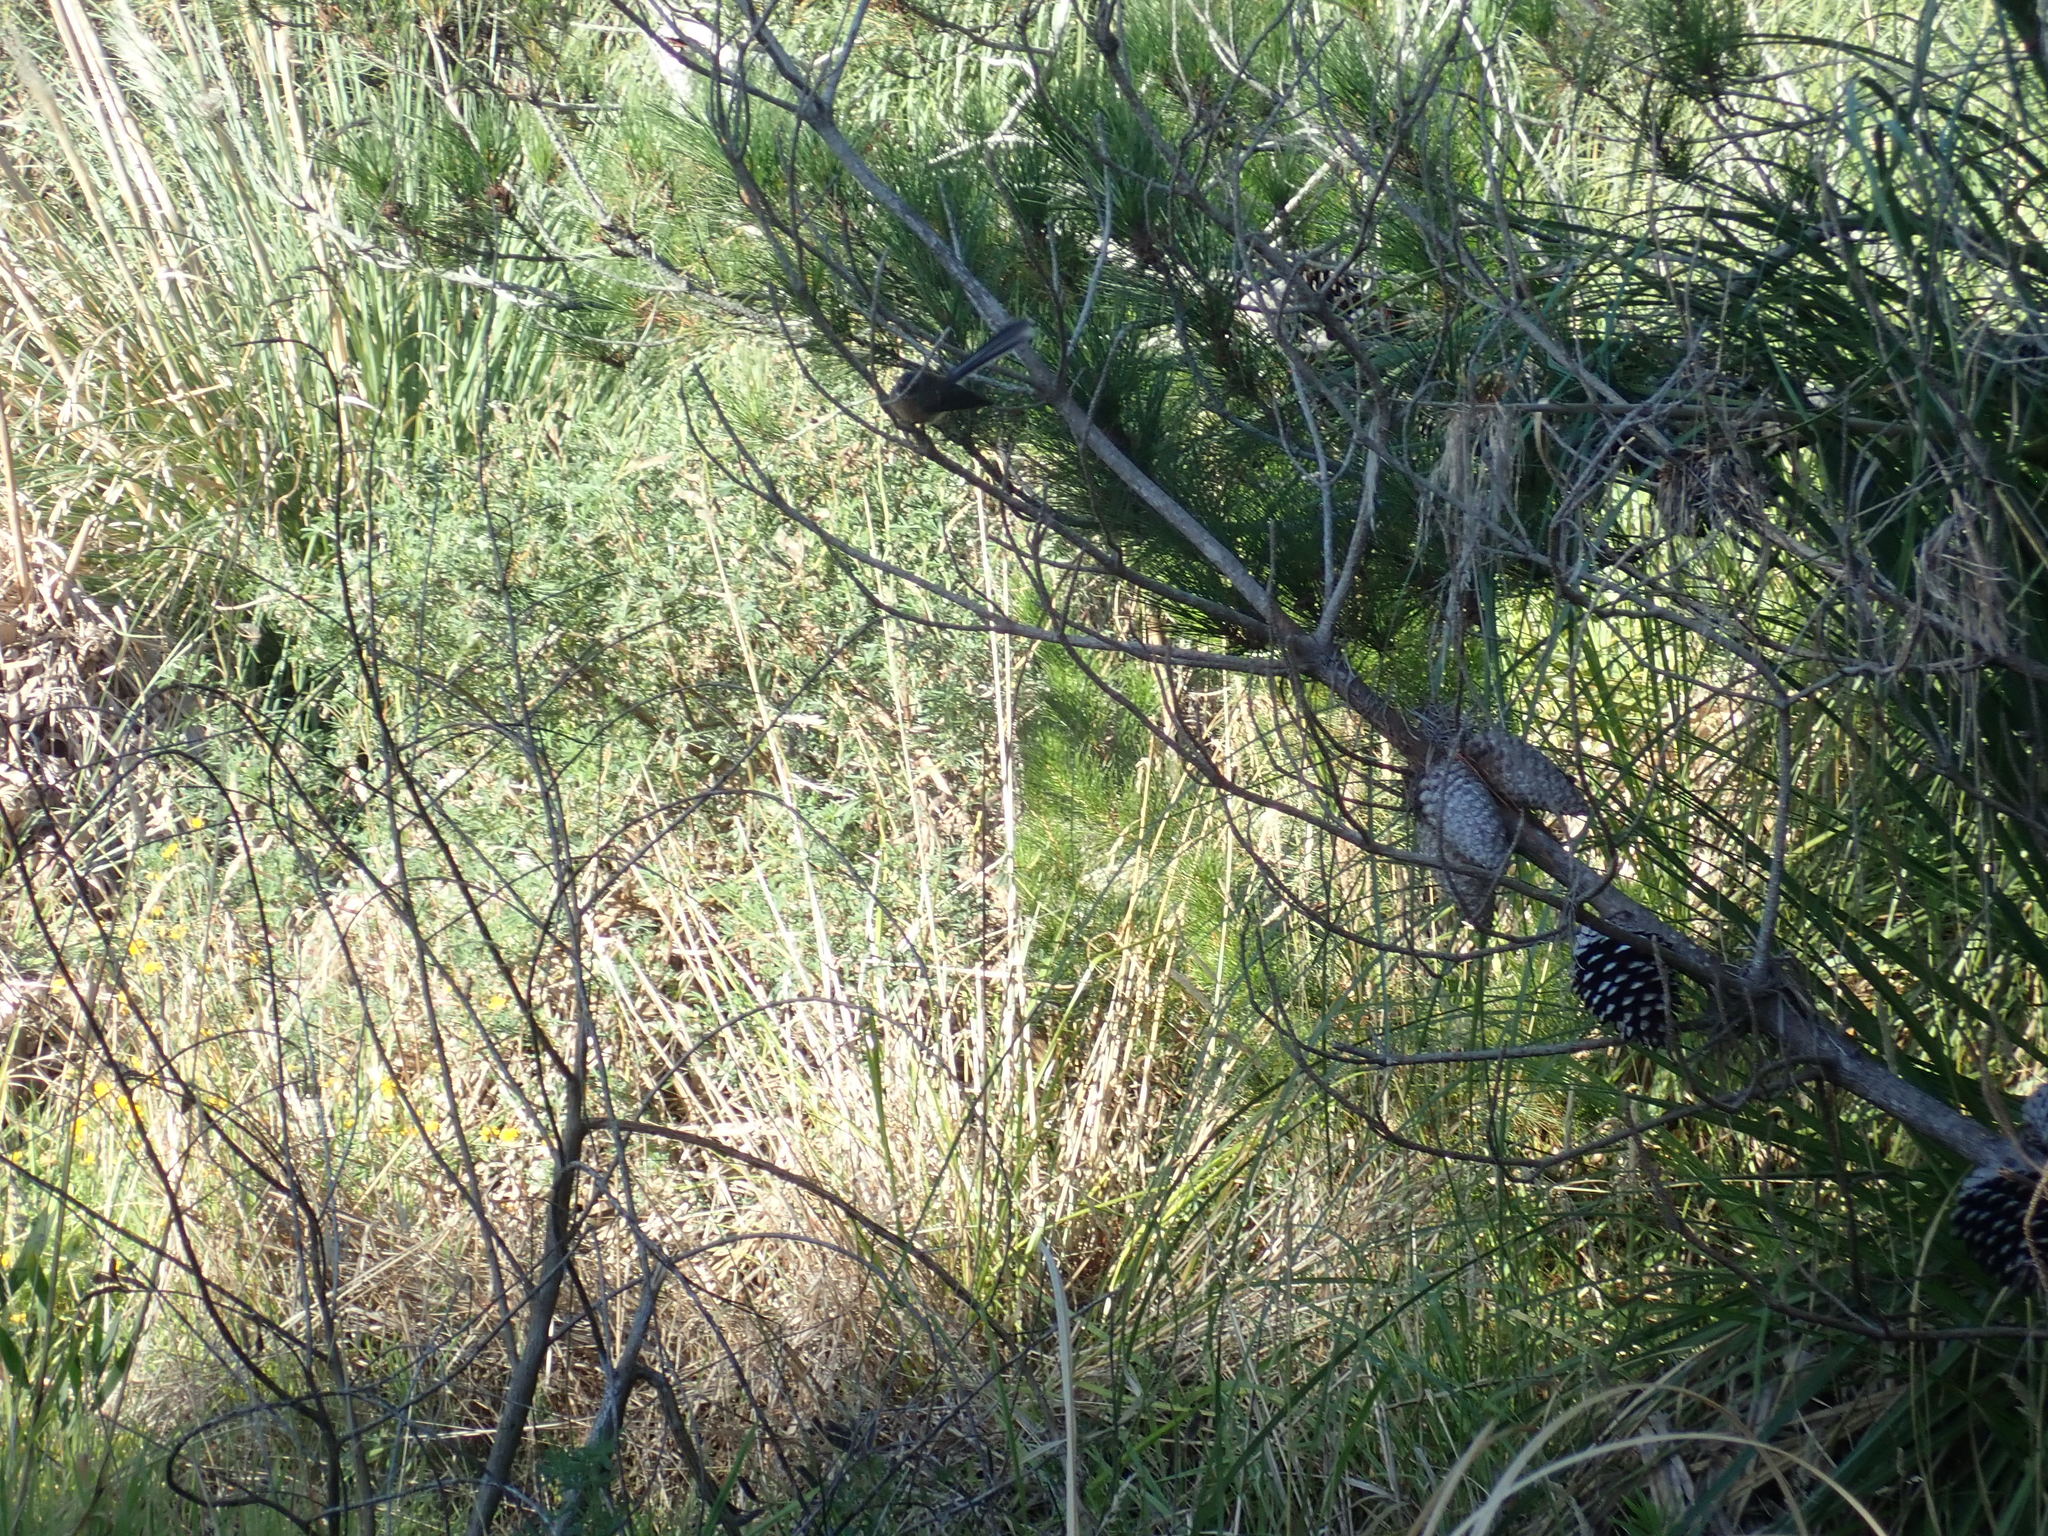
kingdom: Animalia
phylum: Chordata
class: Aves
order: Passeriformes
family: Rhipiduridae
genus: Rhipidura
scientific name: Rhipidura fuliginosa
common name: New zealand fantail
